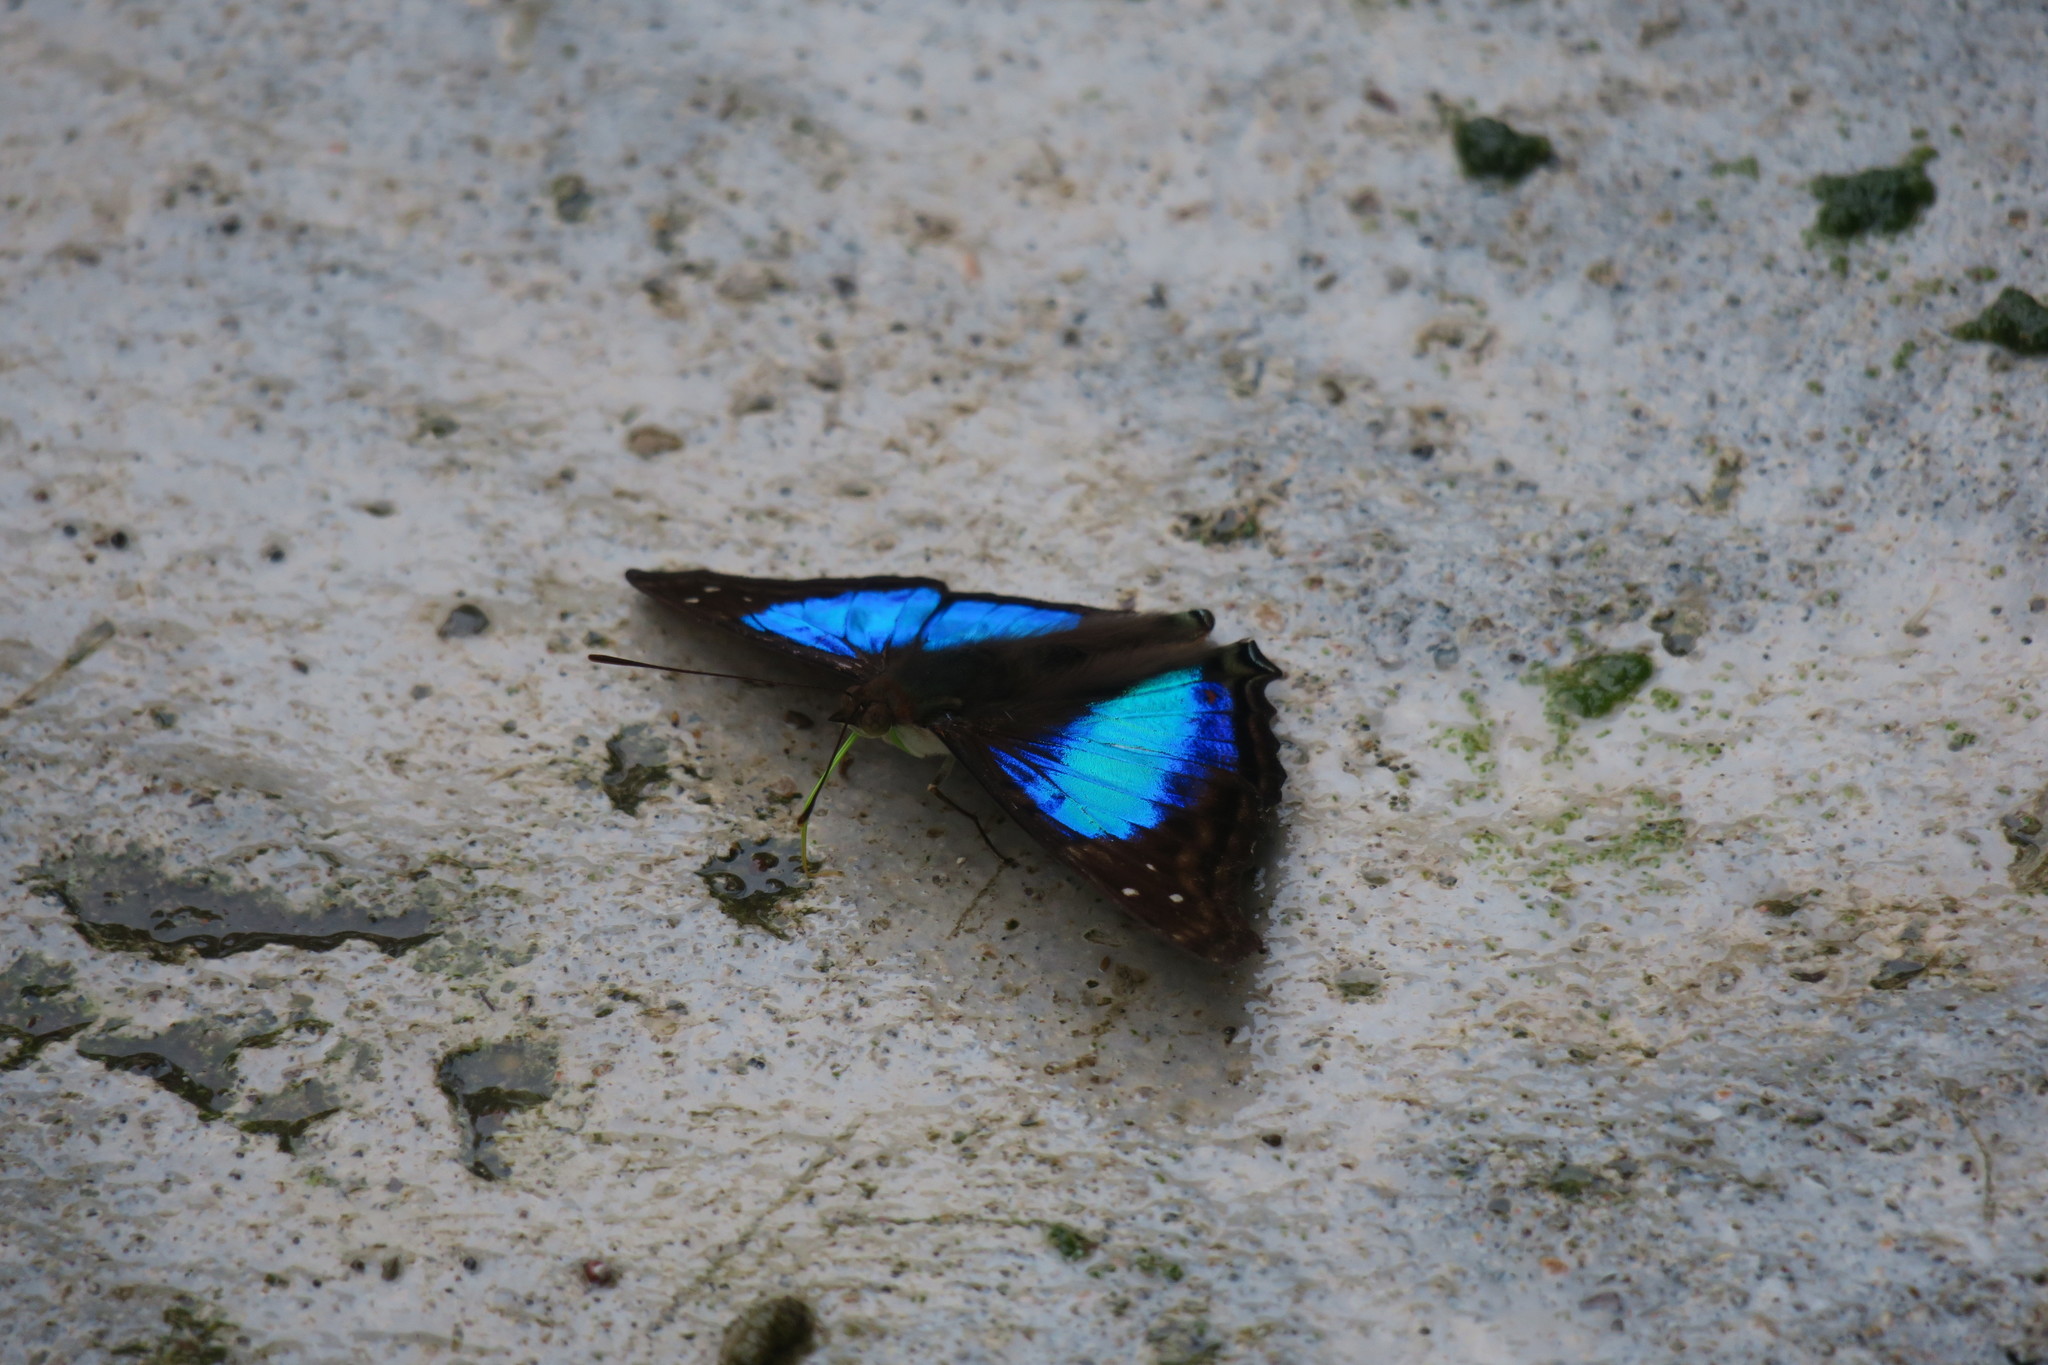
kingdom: Animalia
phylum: Arthropoda
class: Insecta
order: Lepidoptera
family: Nymphalidae
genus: Doxocopa
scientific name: Doxocopa laurentia
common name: Turquoise emperor
